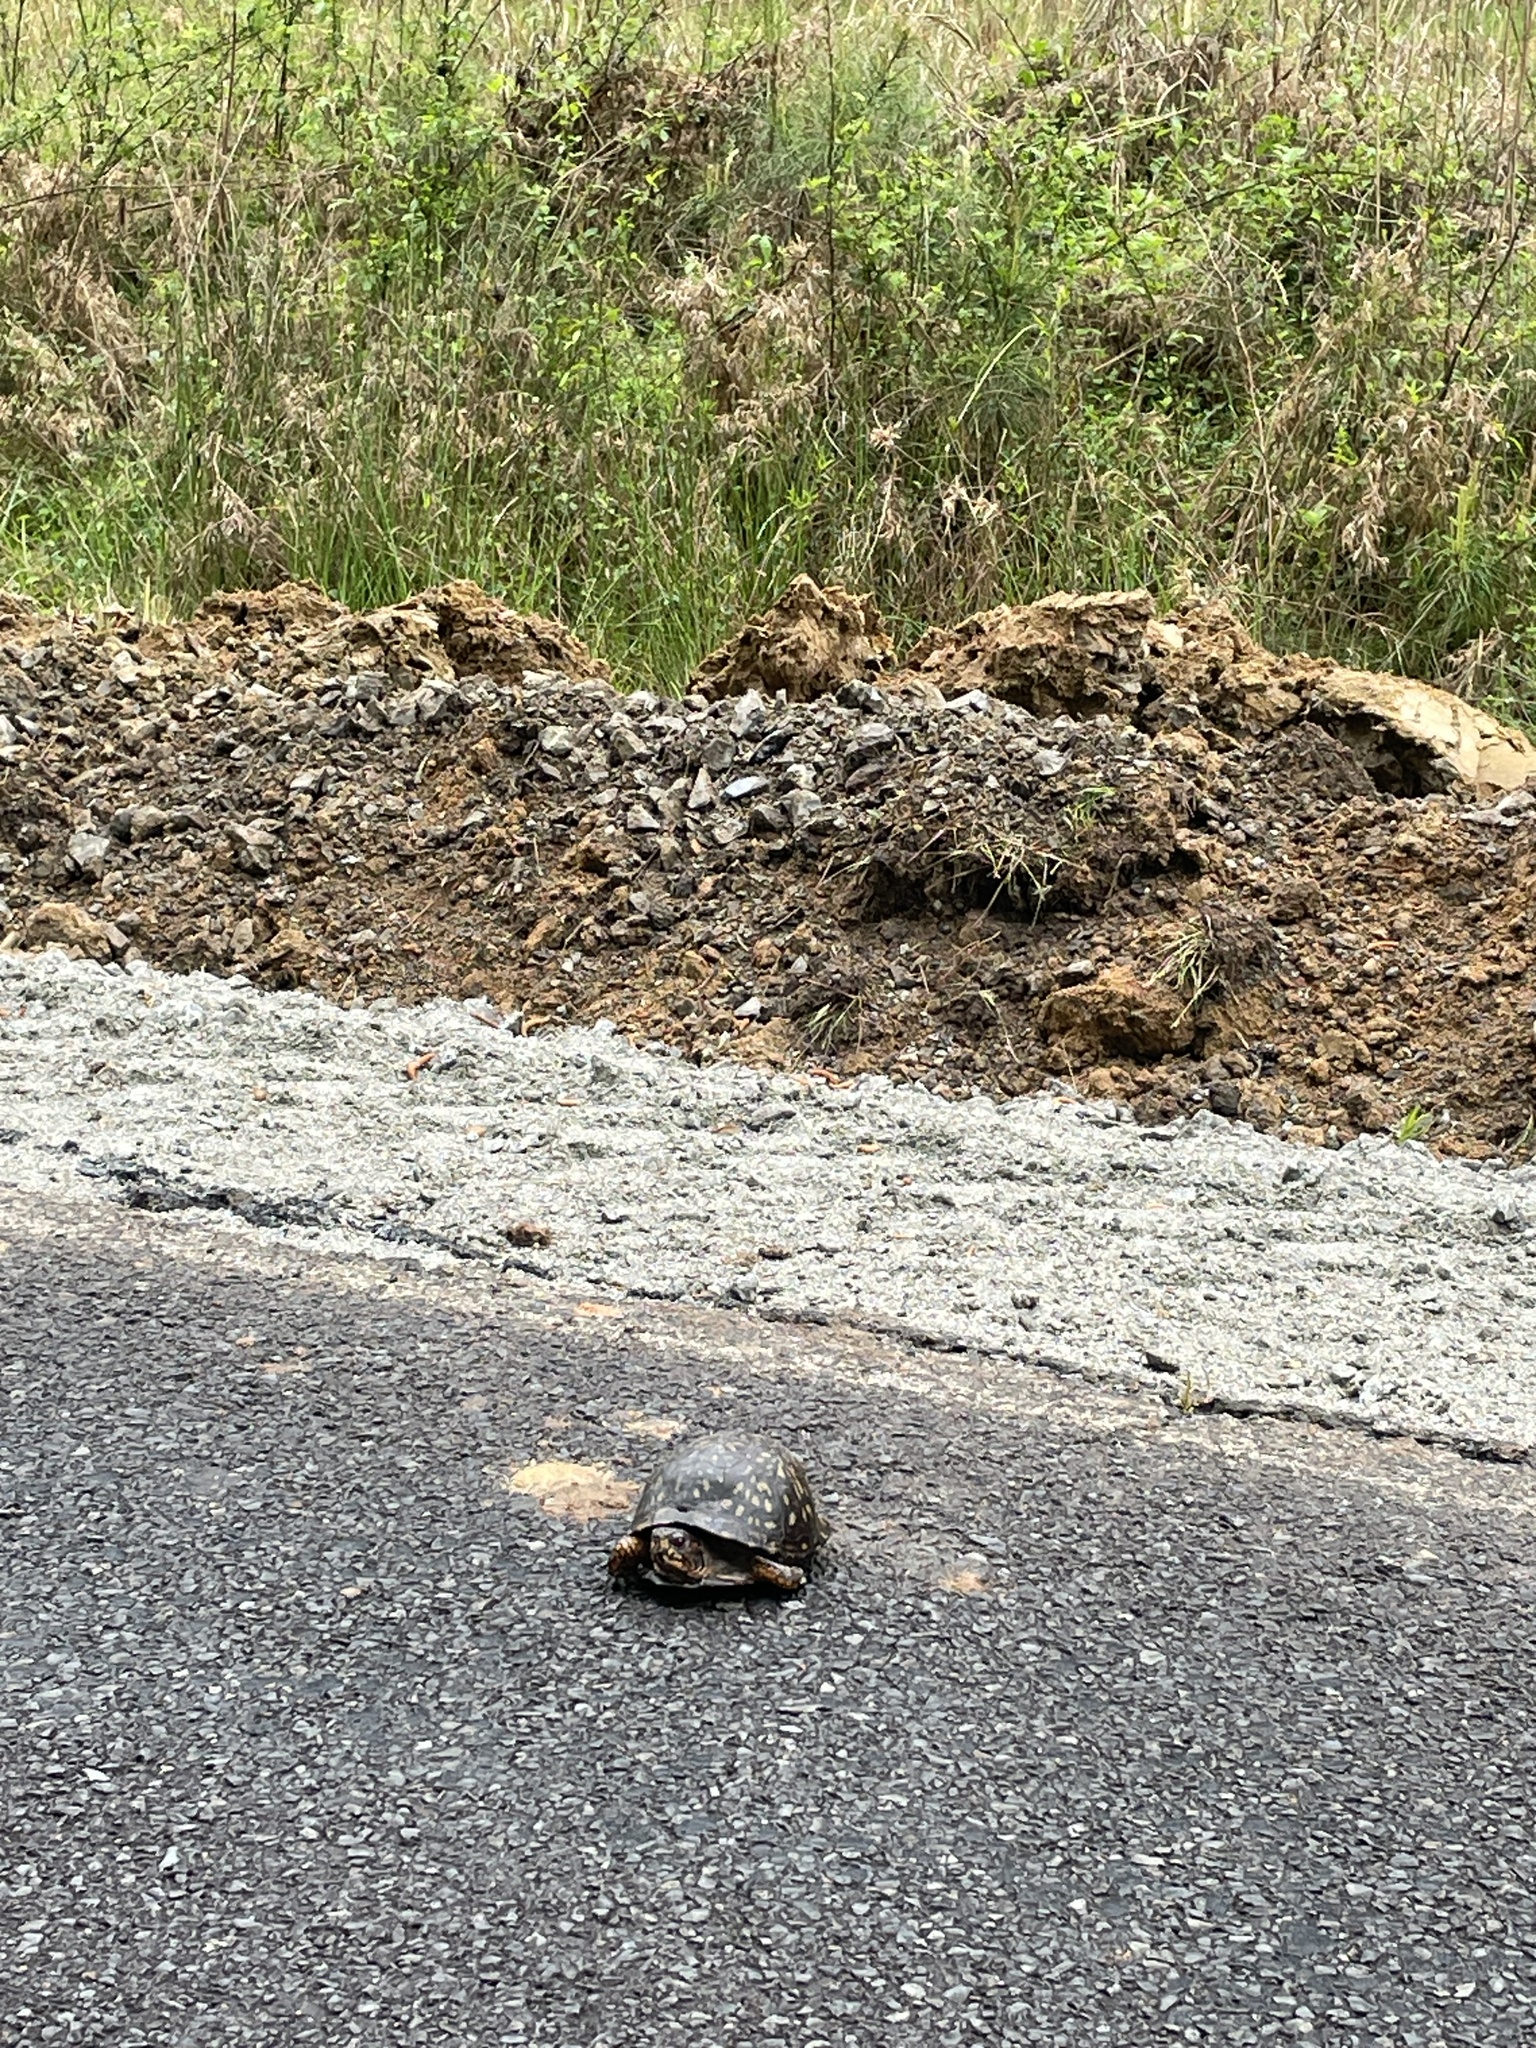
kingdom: Animalia
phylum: Chordata
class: Testudines
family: Emydidae
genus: Terrapene
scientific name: Terrapene carolina
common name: Common box turtle
